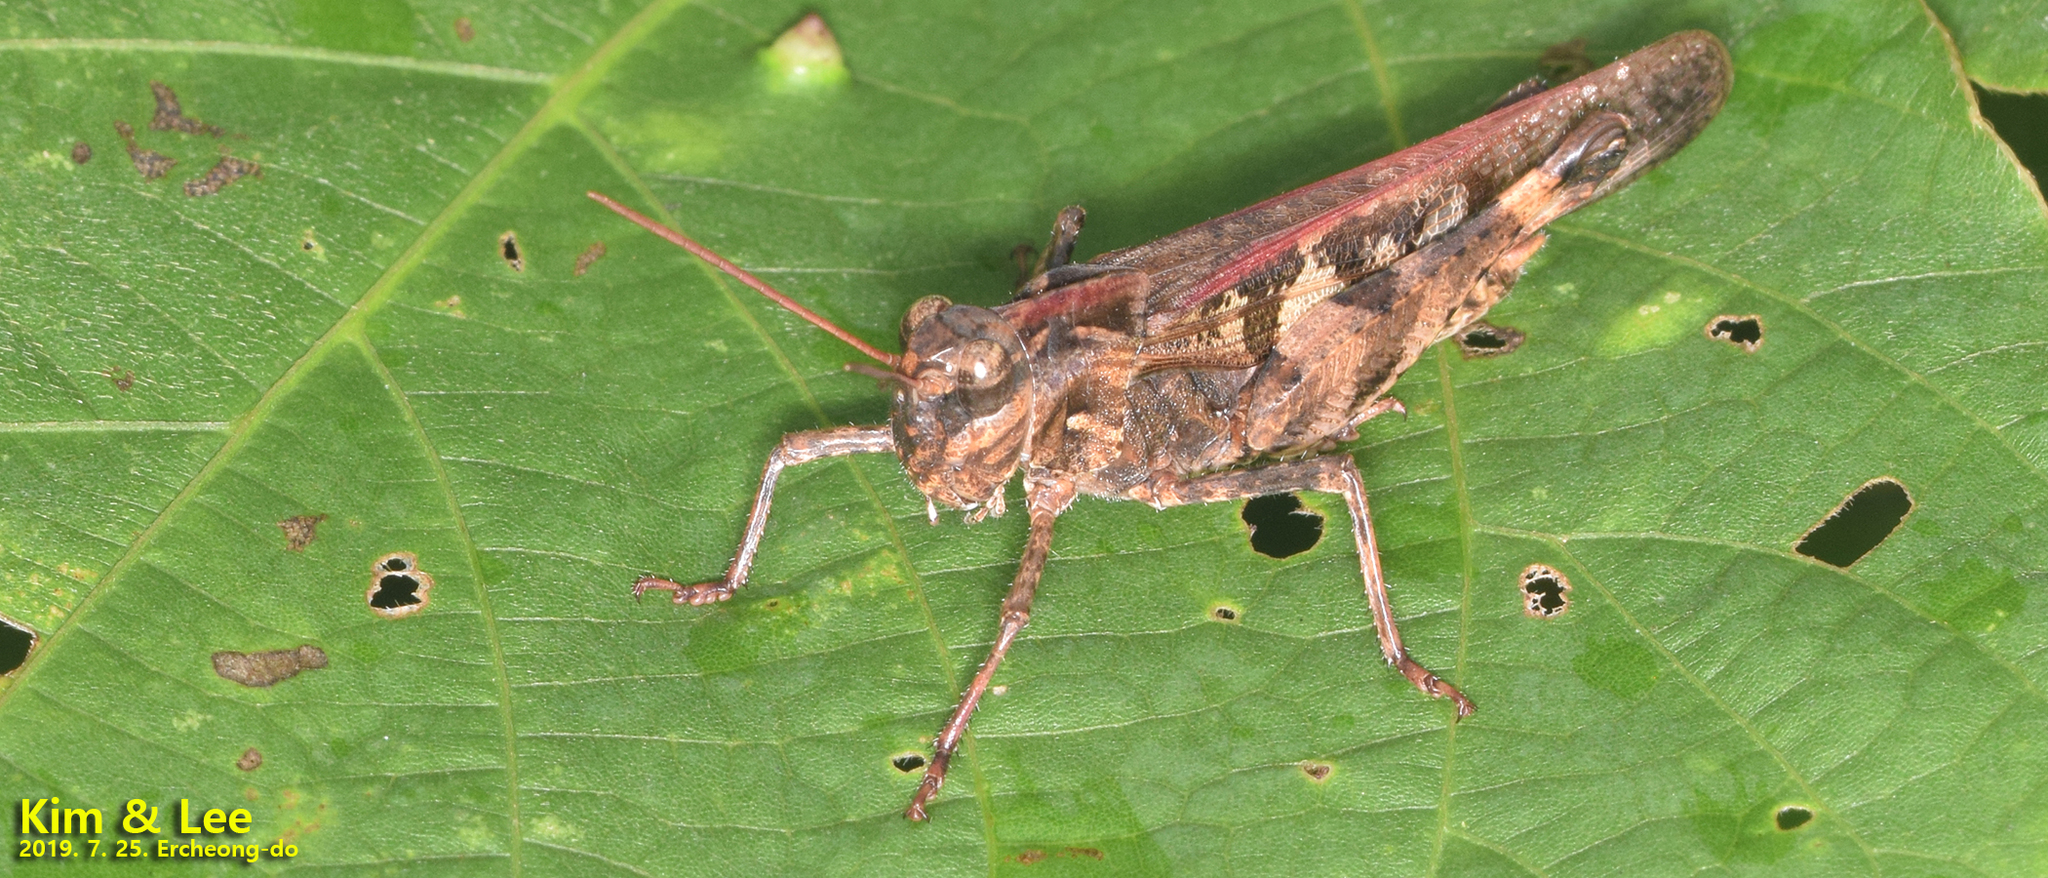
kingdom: Animalia
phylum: Arthropoda
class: Insecta
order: Orthoptera
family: Acrididae
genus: Oedaleus
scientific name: Oedaleus infernalis
